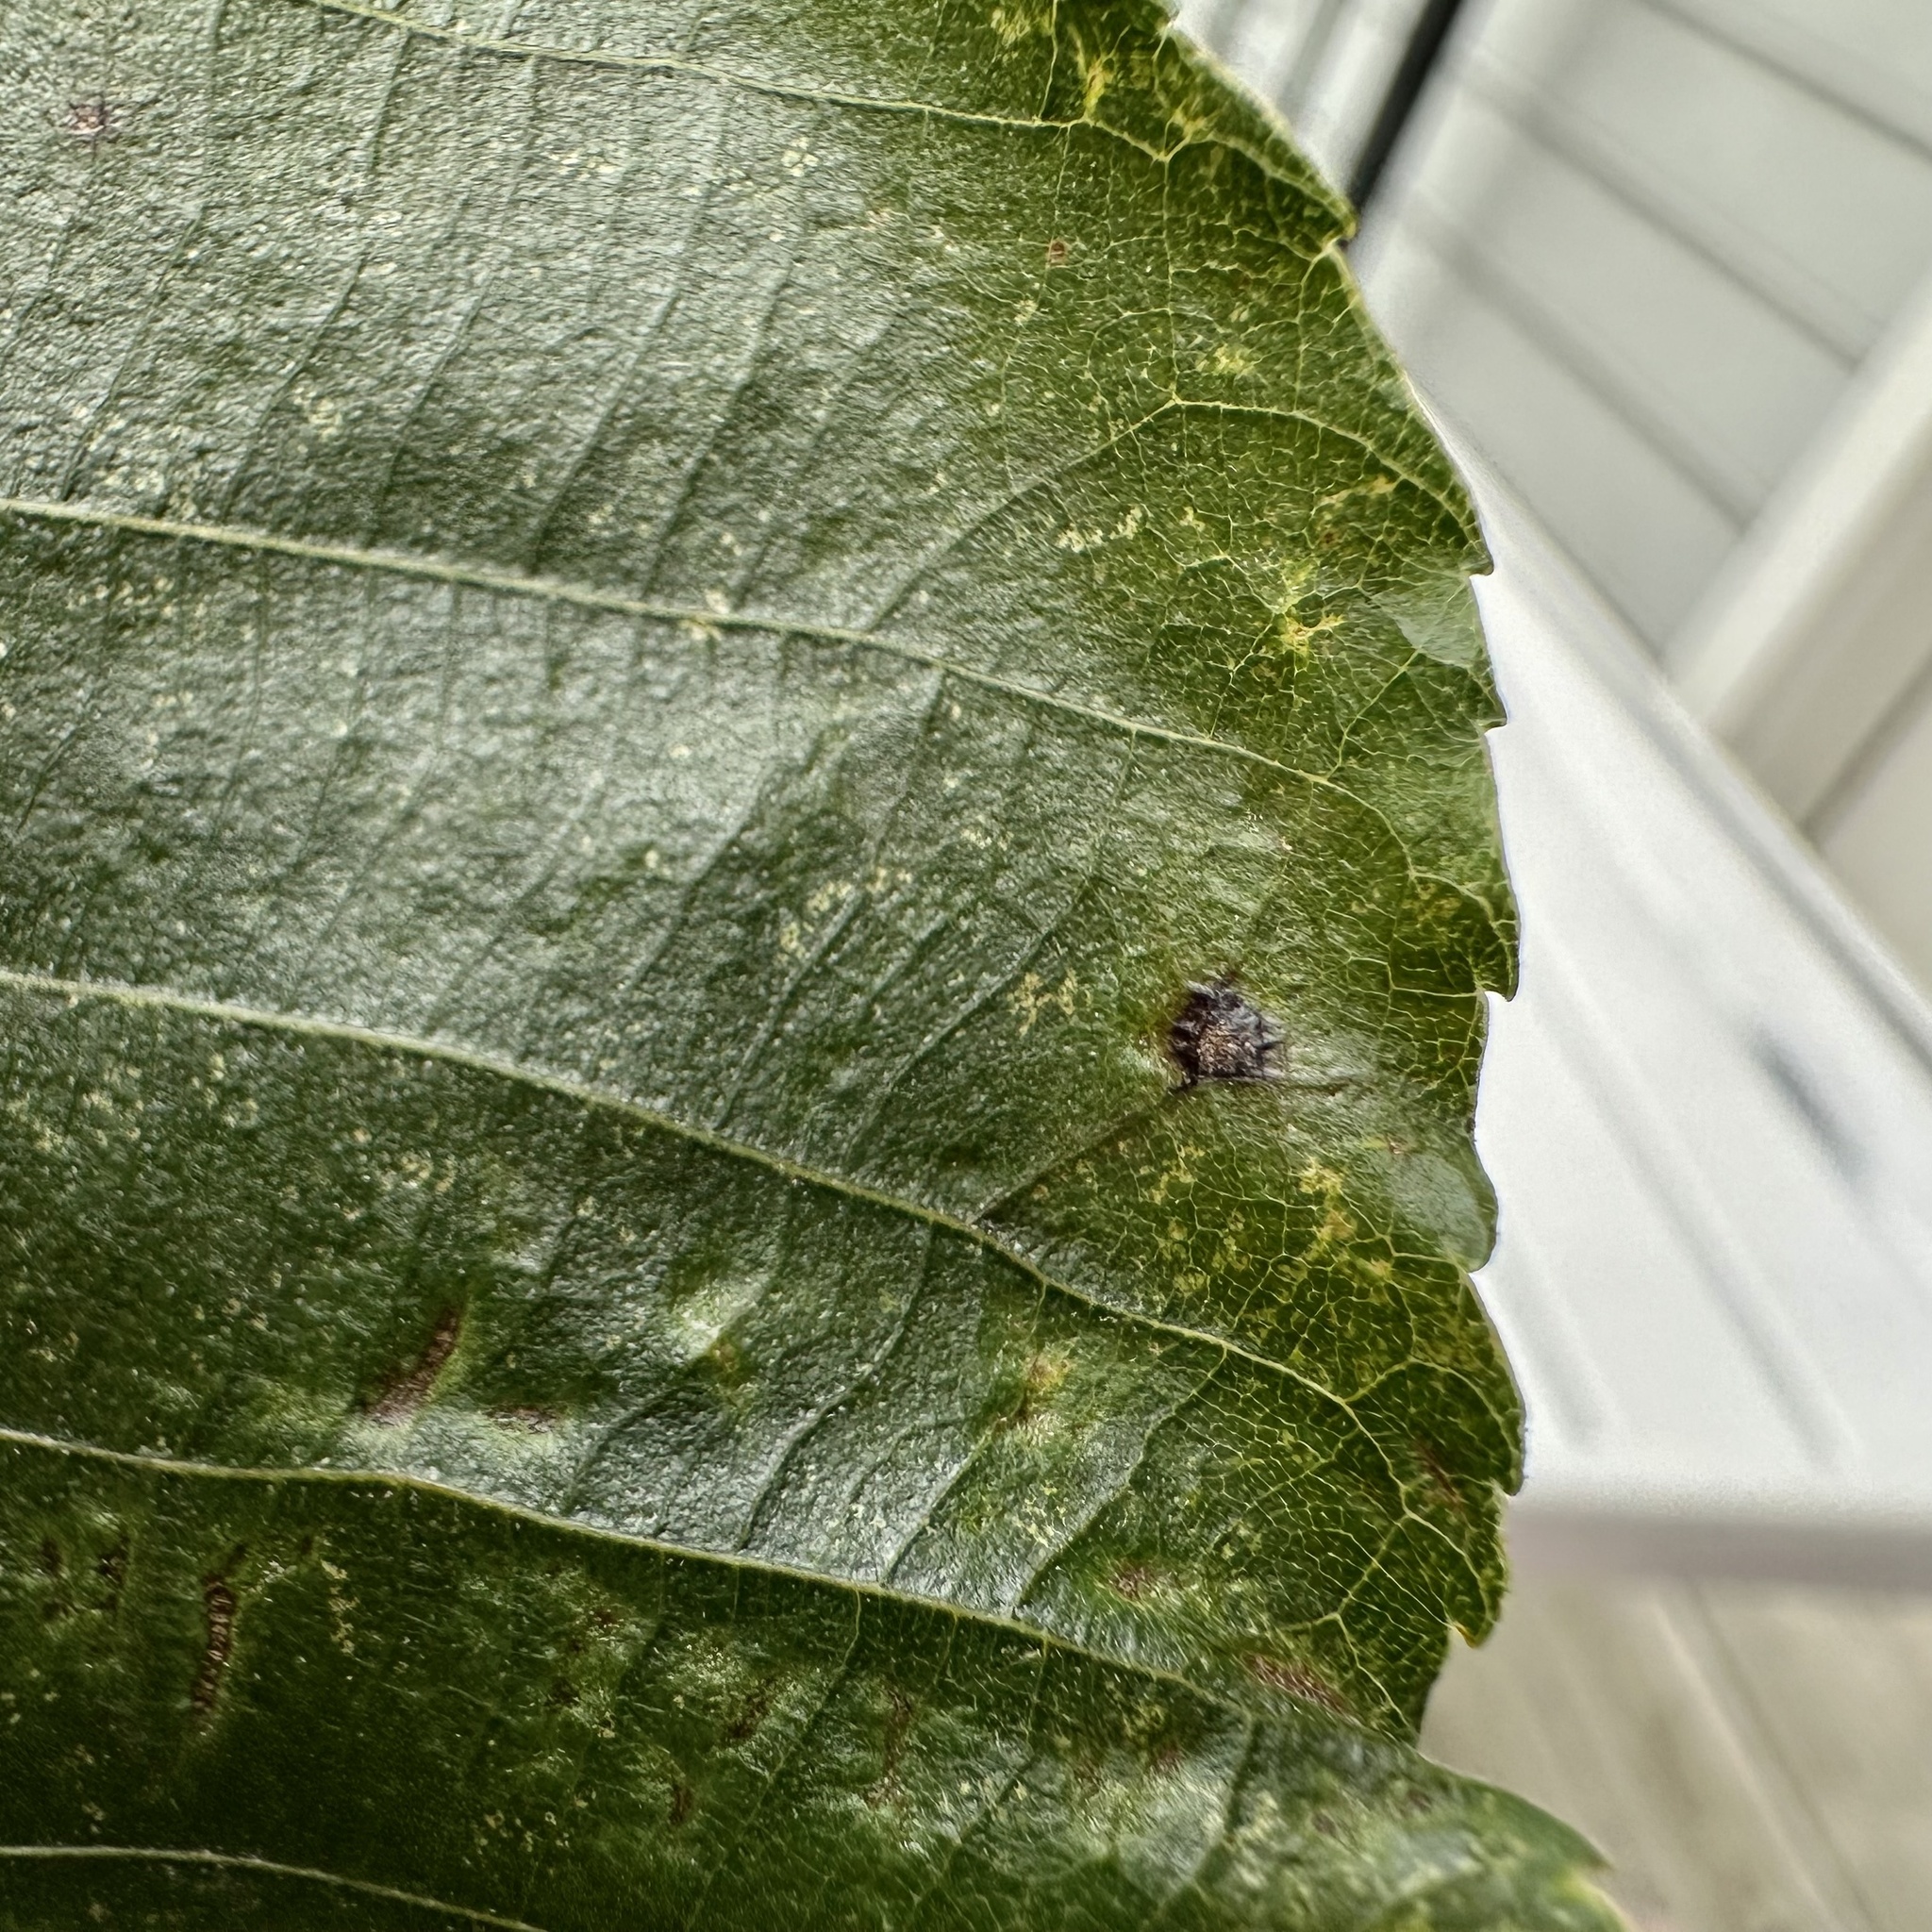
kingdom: Animalia
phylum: Arthropoda
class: Insecta
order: Diptera
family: Cecidomyiidae
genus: Caryomyia
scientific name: Caryomyia caryae
